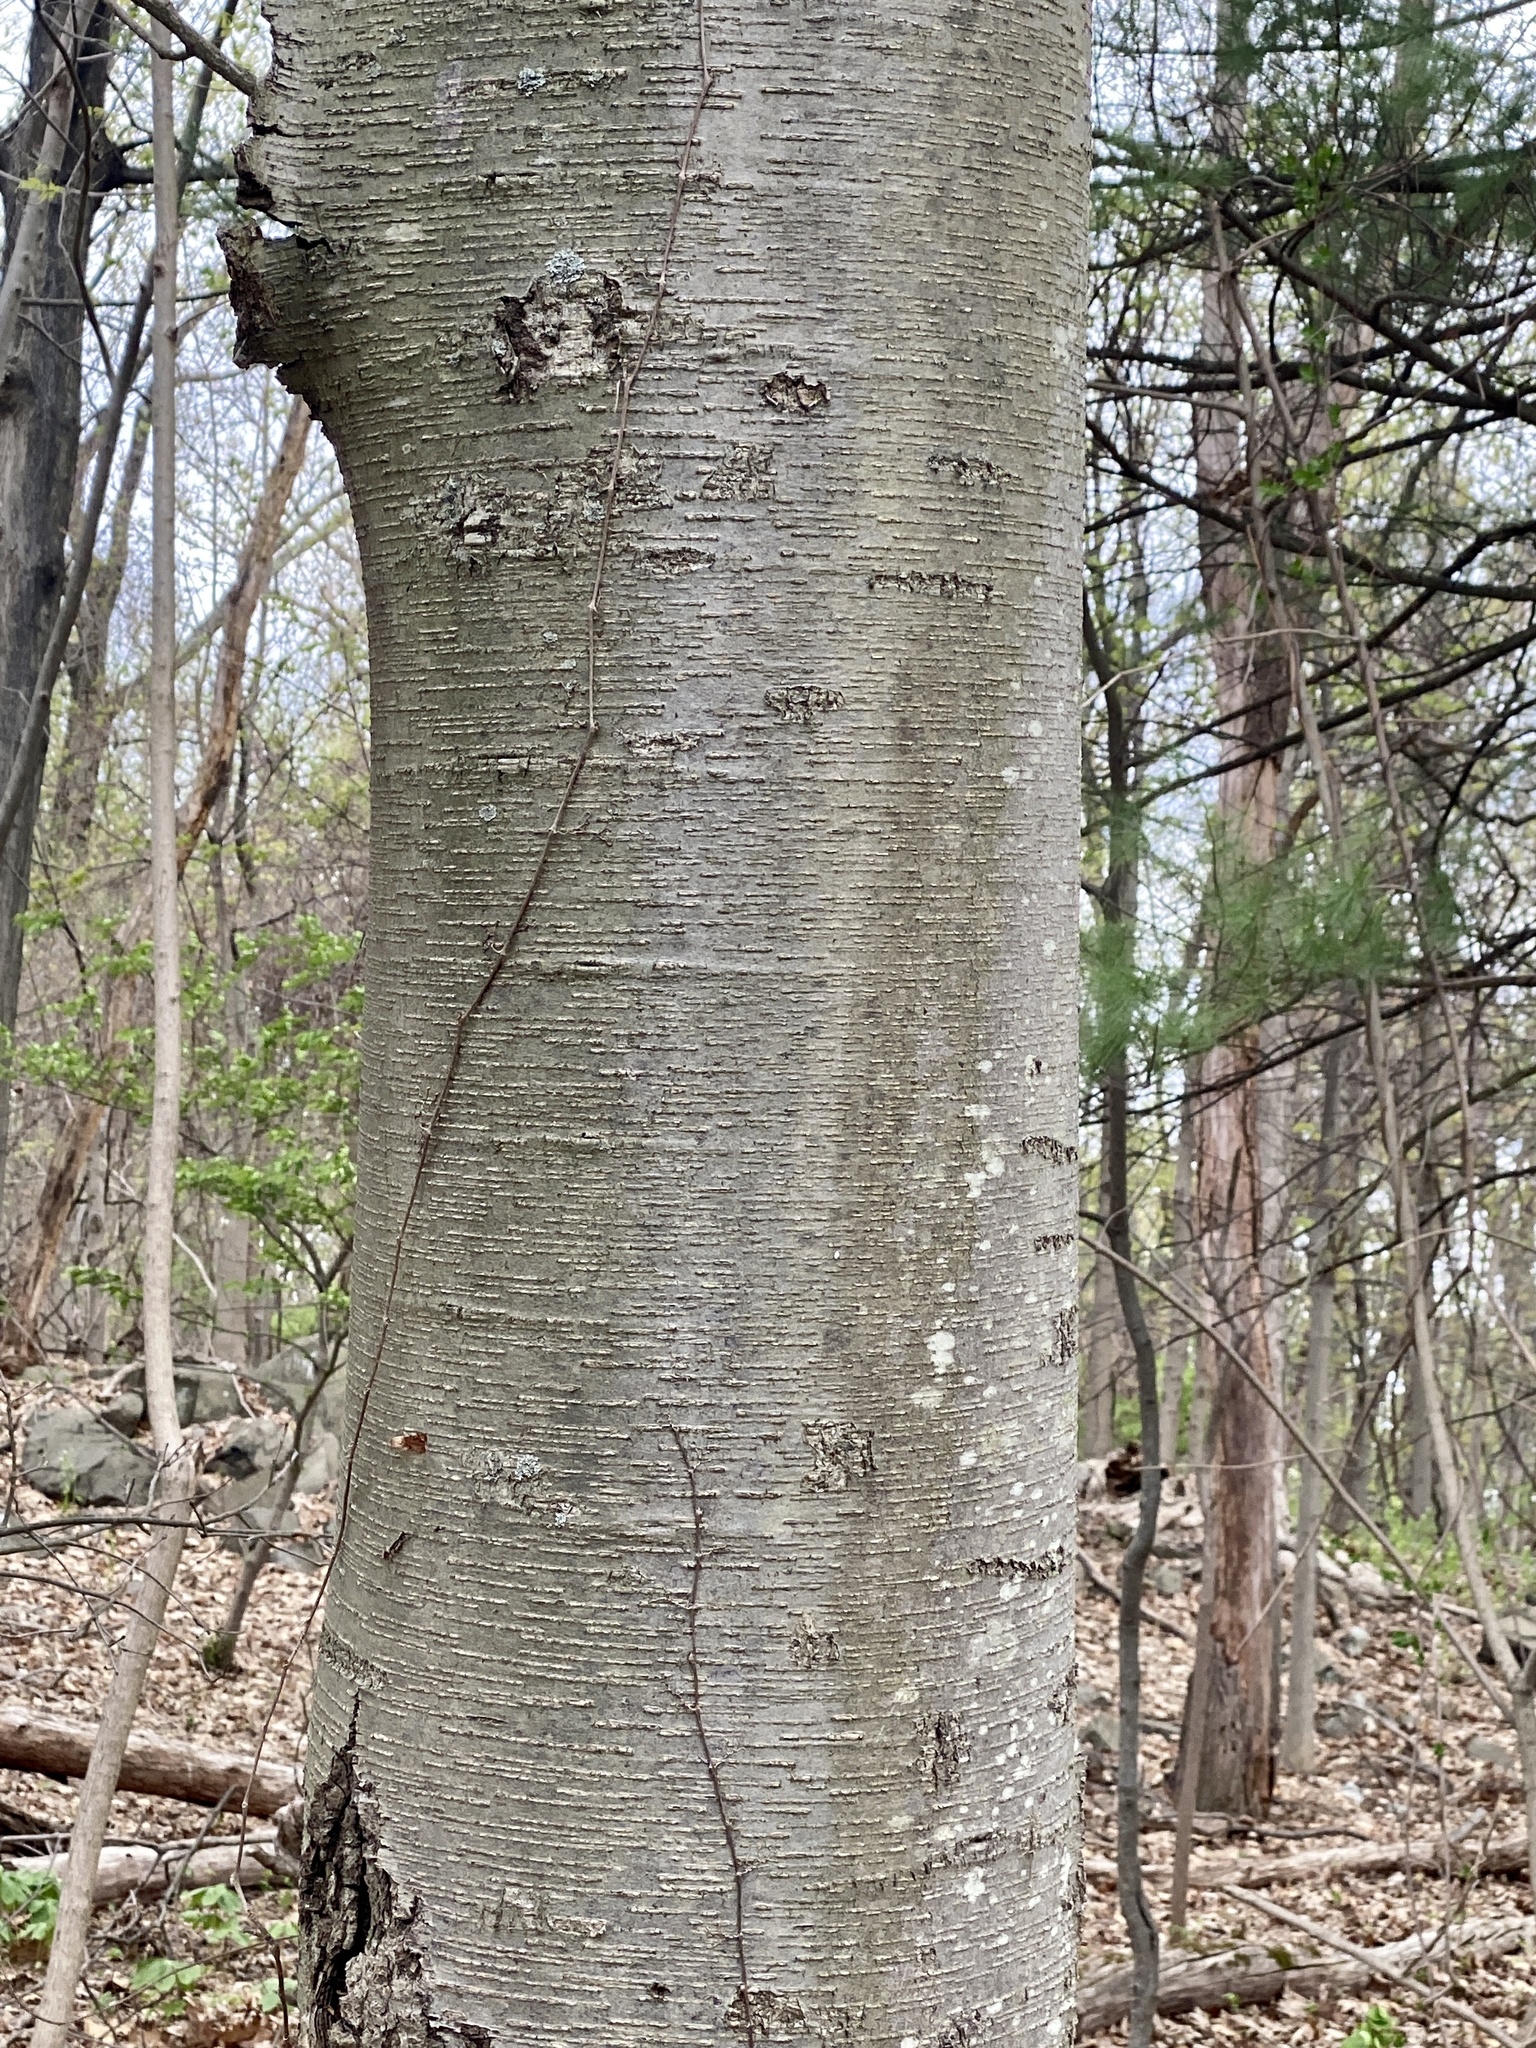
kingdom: Plantae
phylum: Tracheophyta
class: Magnoliopsida
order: Fagales
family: Betulaceae
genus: Betula
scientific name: Betula lenta
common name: Black birch
